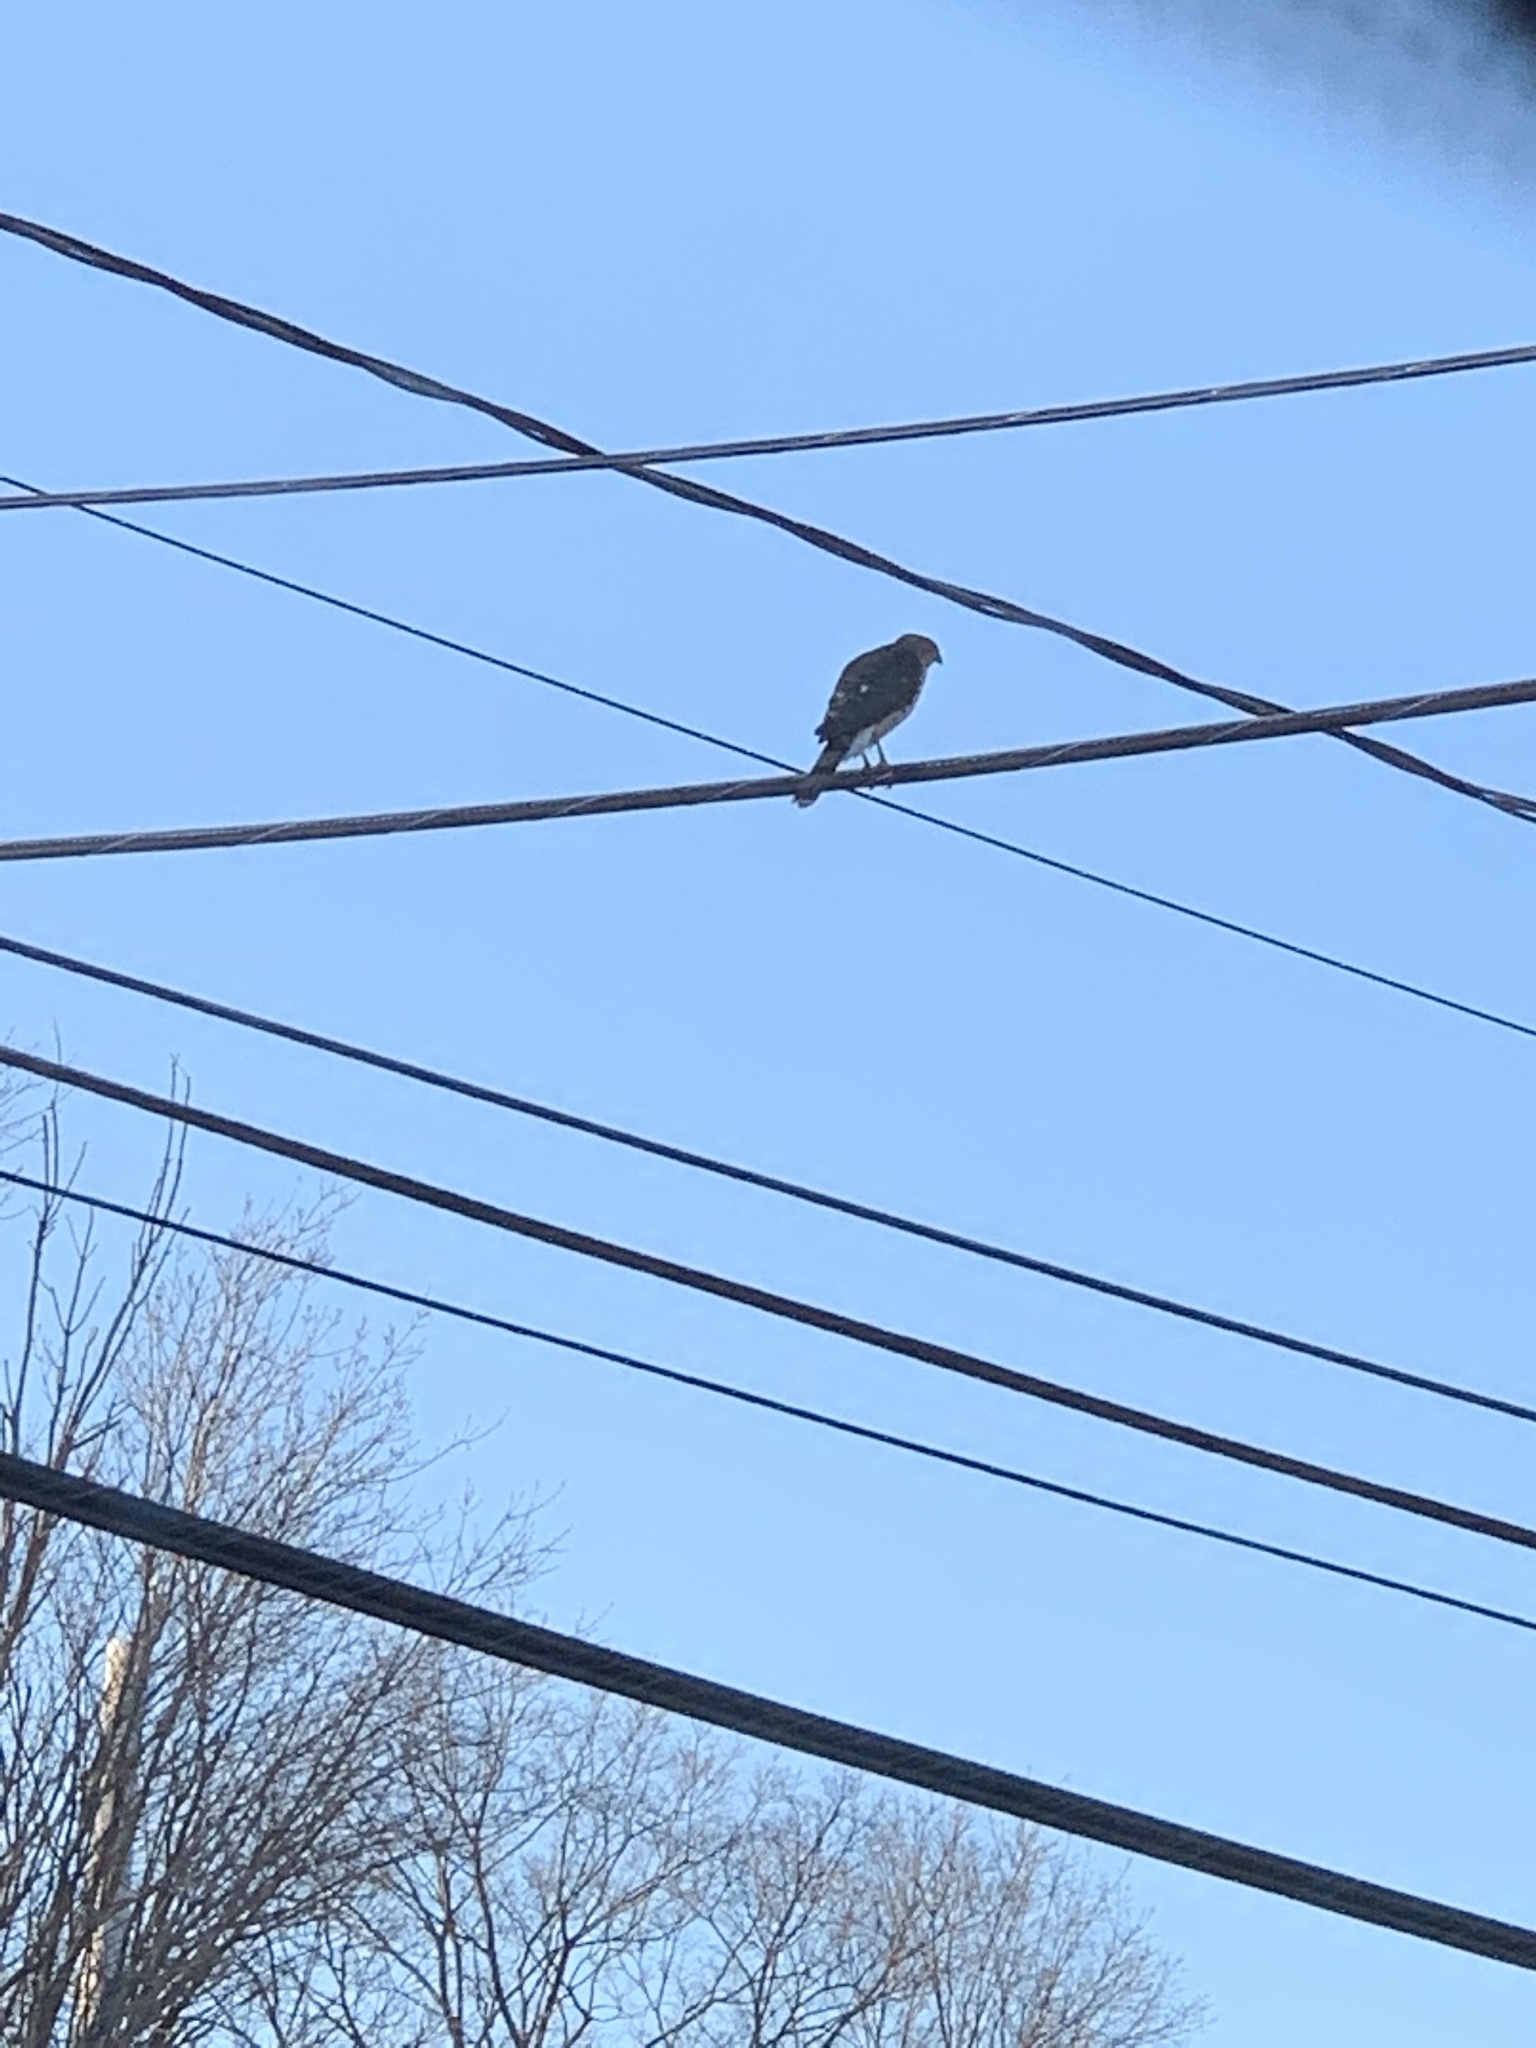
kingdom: Animalia
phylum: Chordata
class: Aves
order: Accipitriformes
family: Accipitridae
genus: Accipiter
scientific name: Accipiter cooperii
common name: Cooper's hawk
